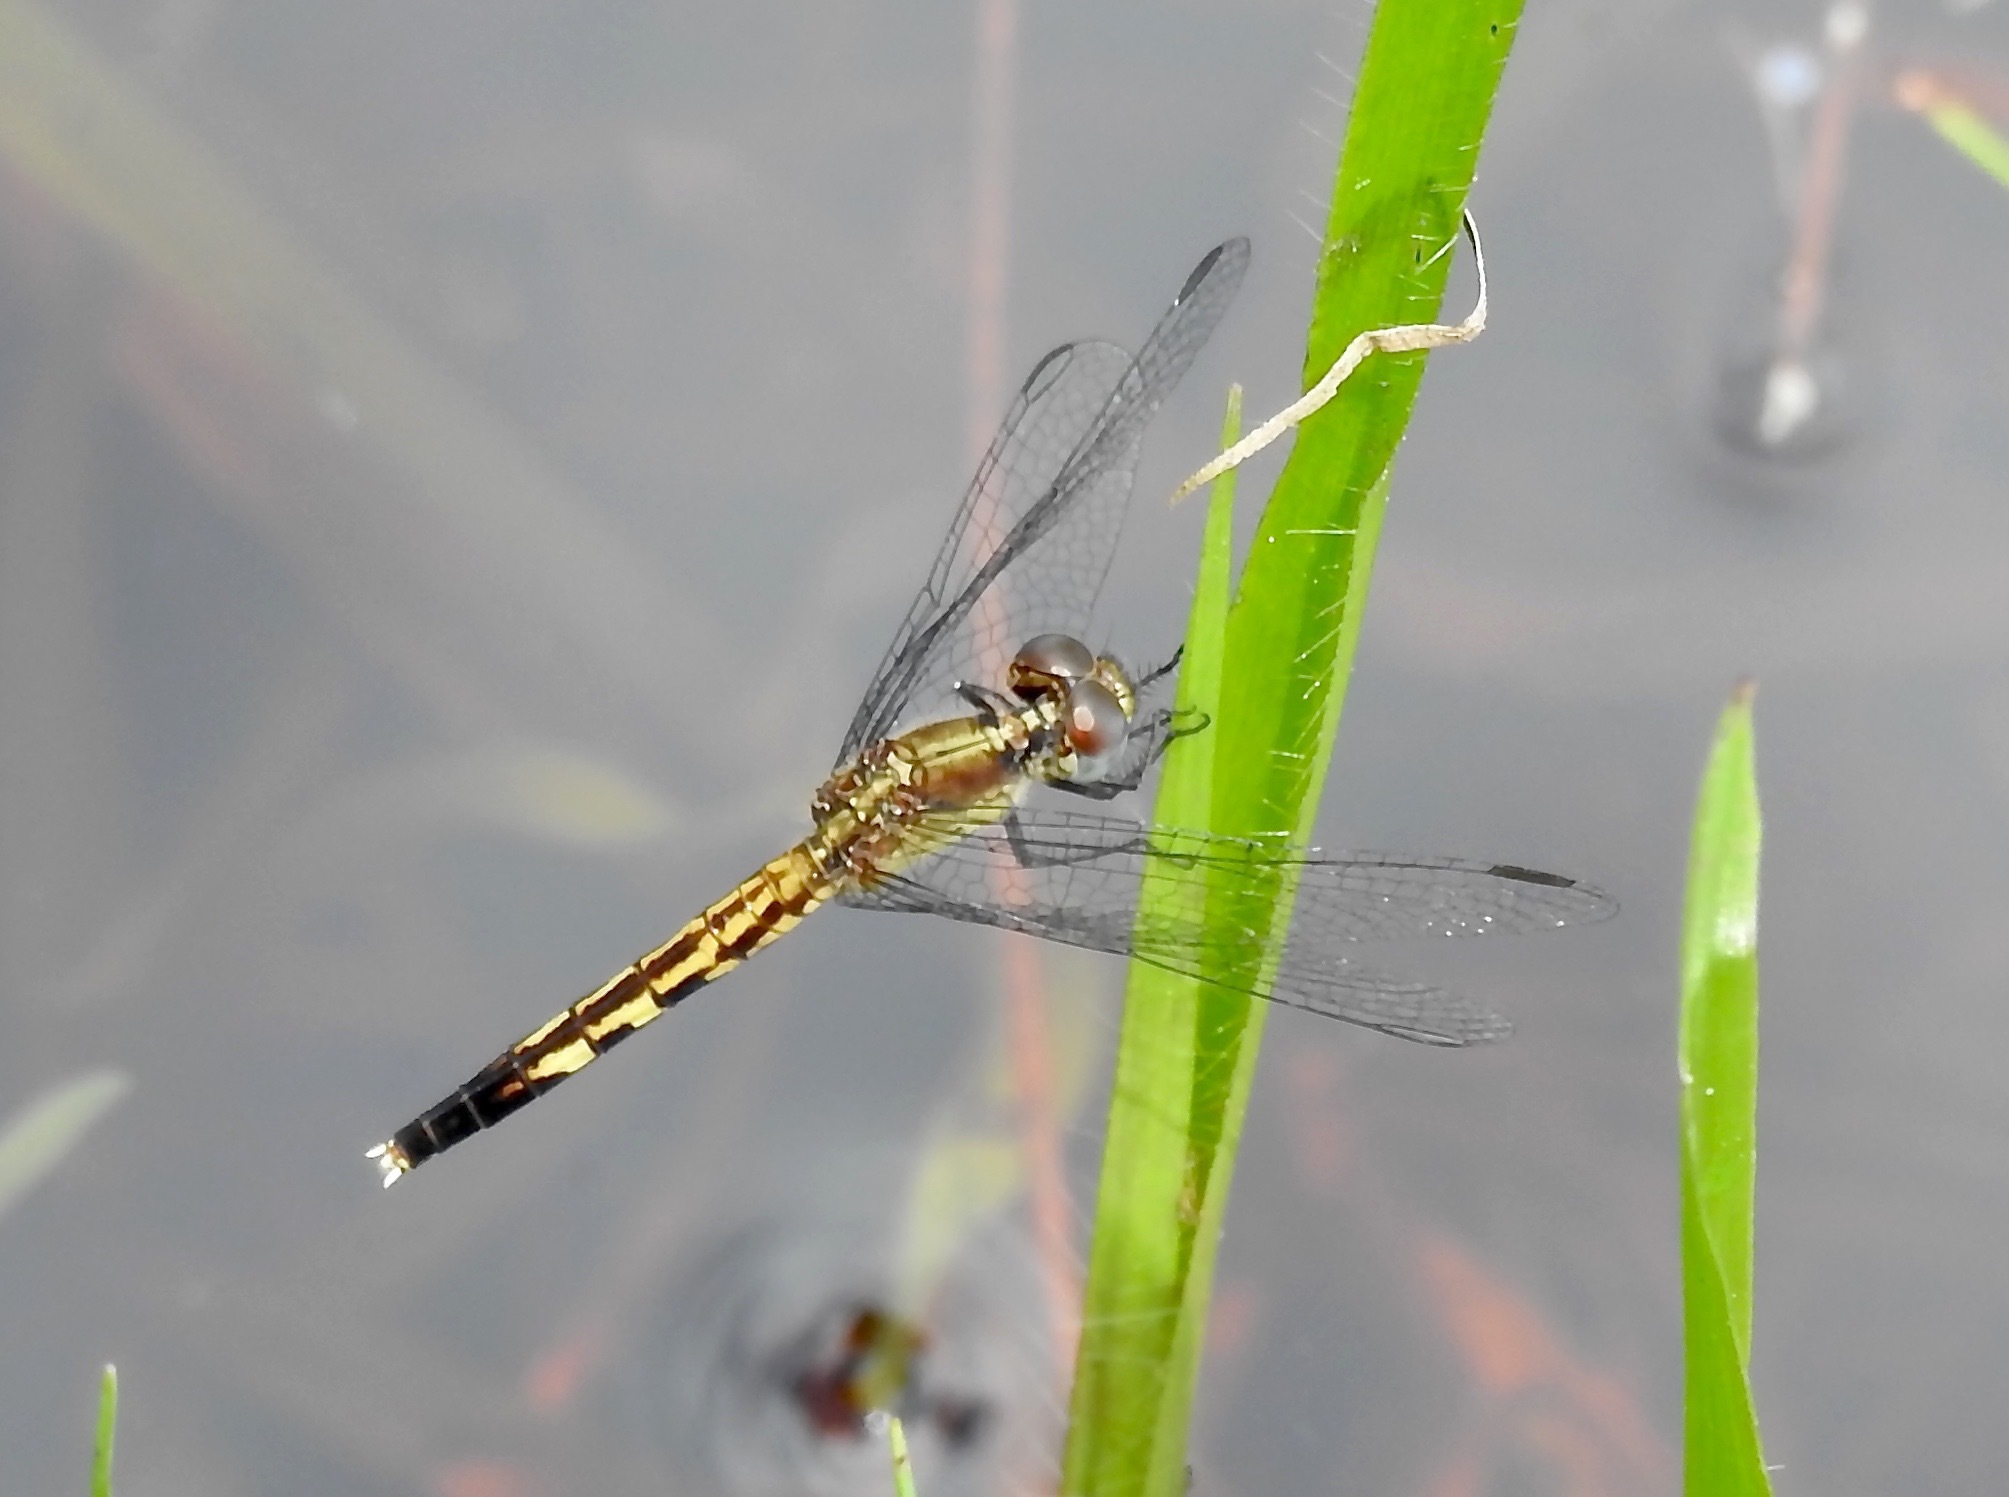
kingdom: Animalia
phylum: Arthropoda
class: Insecta
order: Odonata
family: Libellulidae
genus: Erythrodiplax
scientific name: Erythrodiplax minuscula
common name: Little blue dragonlet
